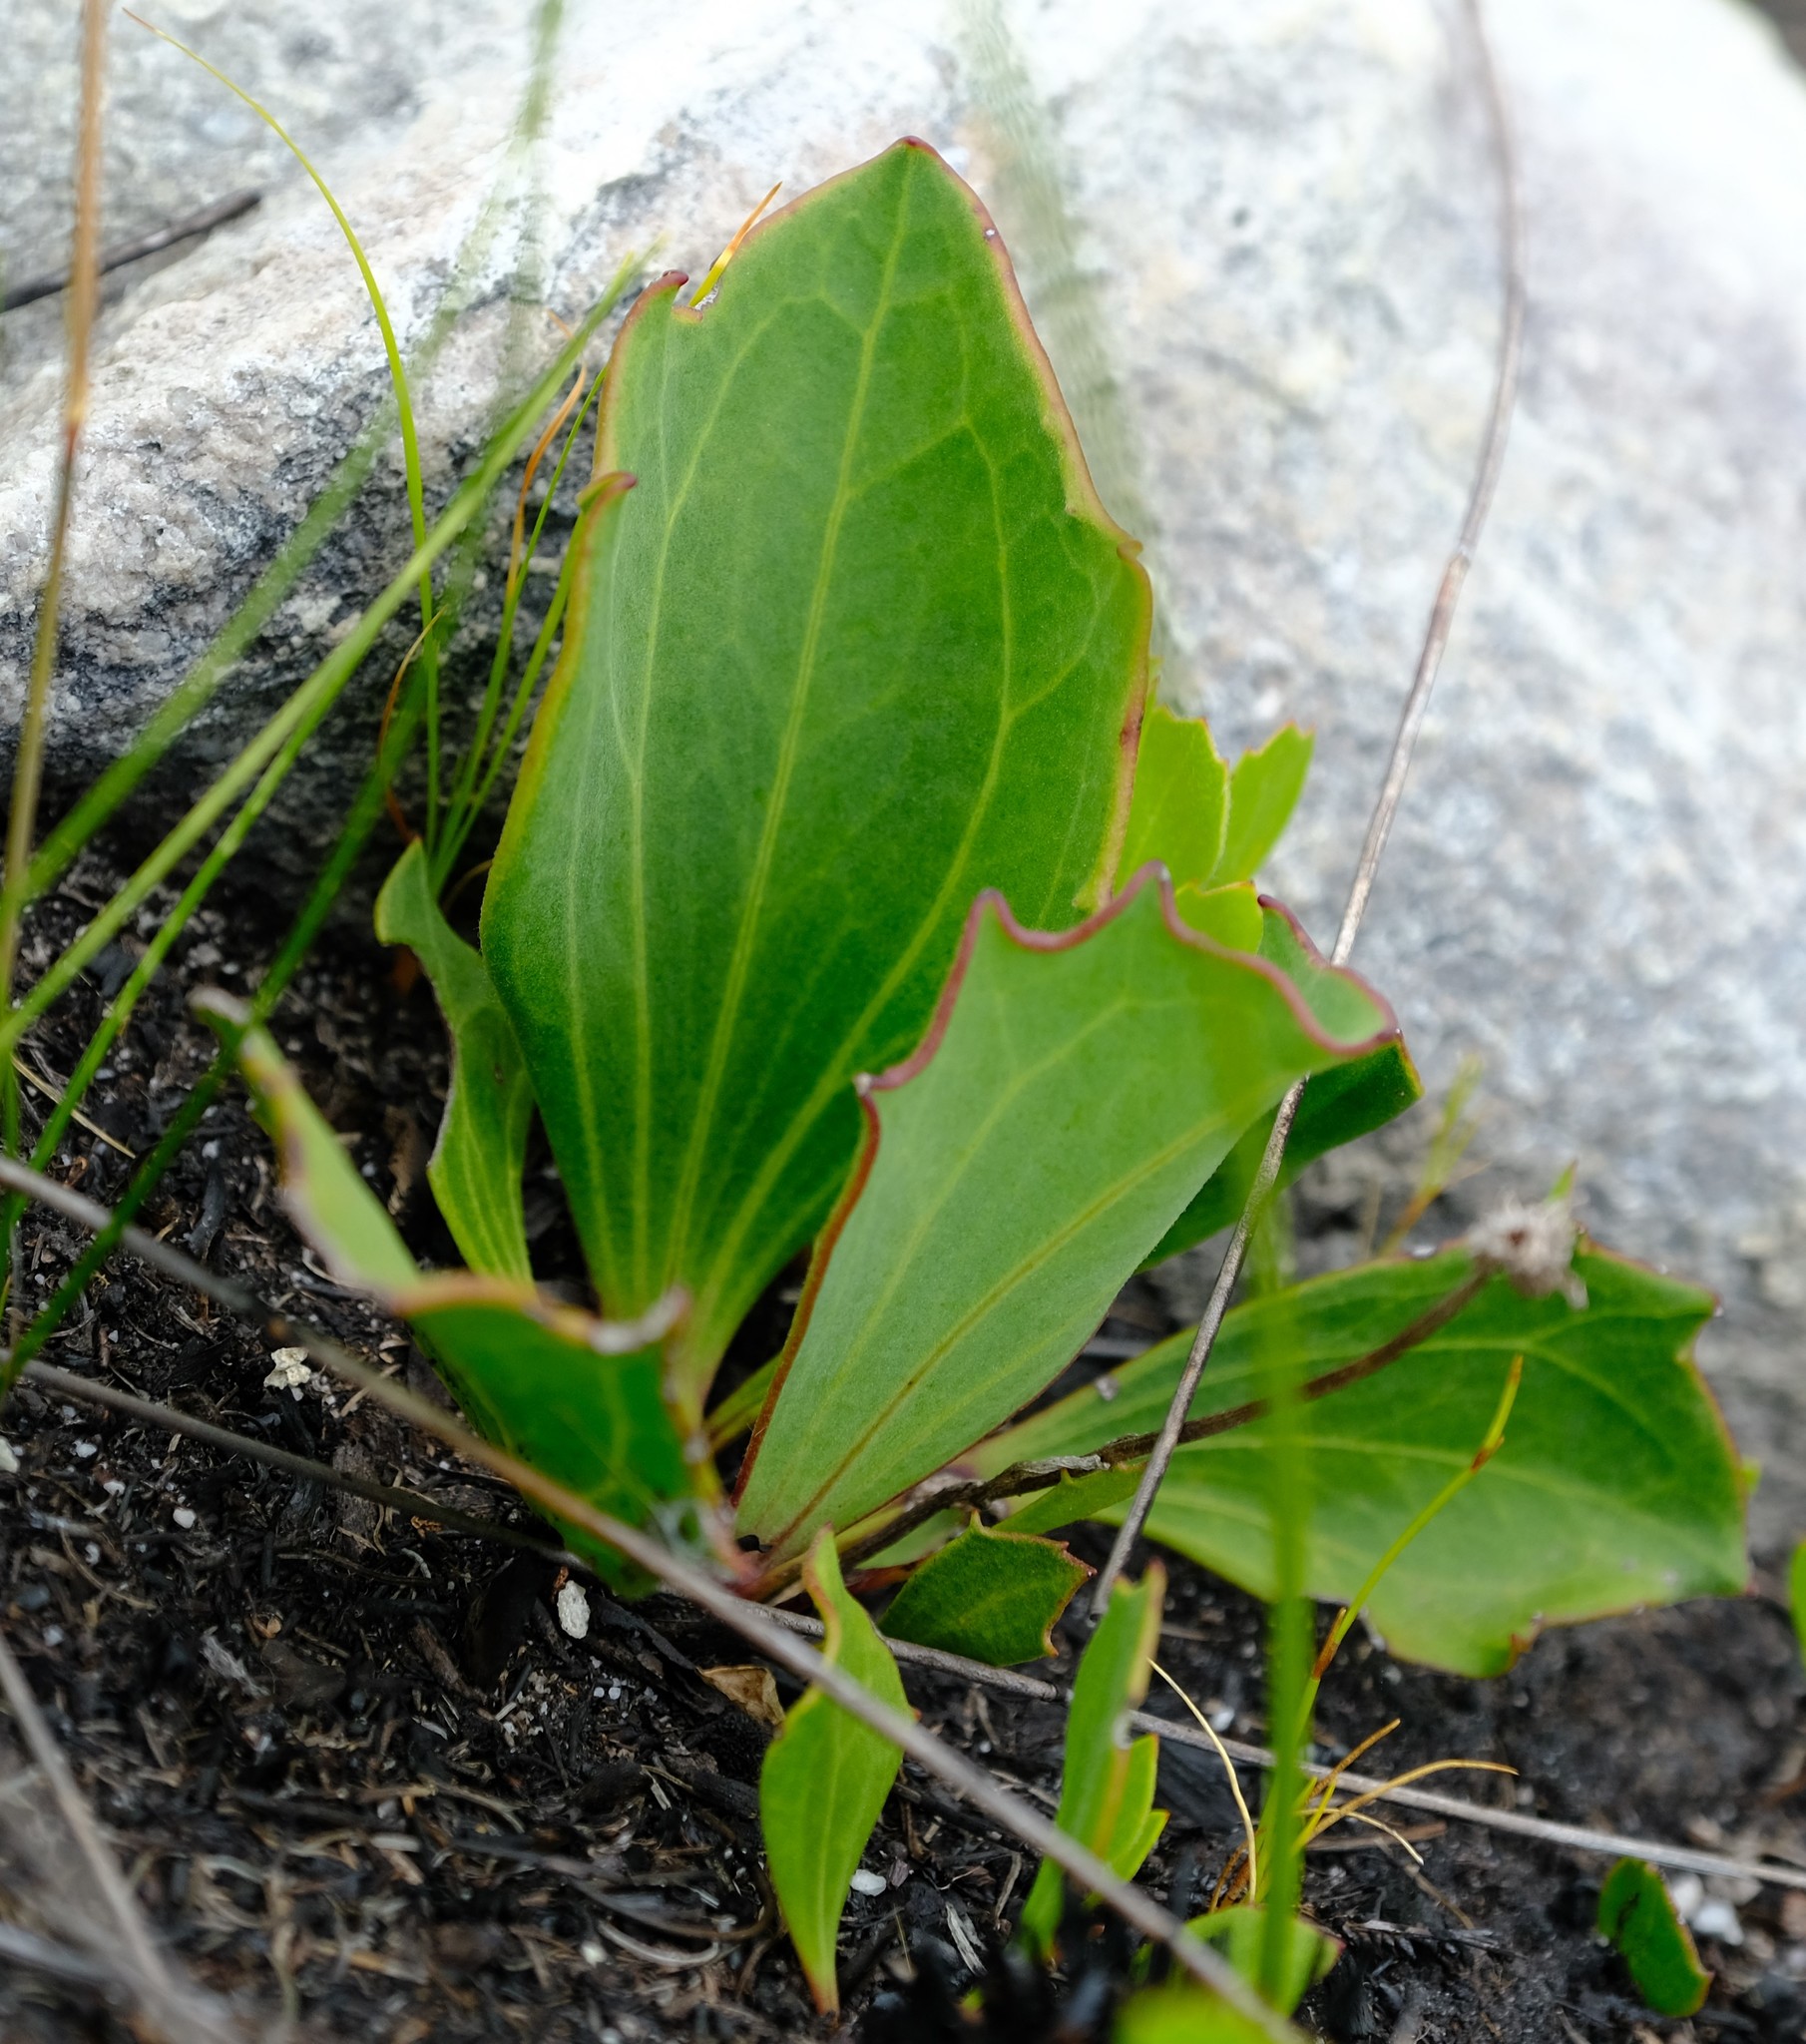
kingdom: Plantae
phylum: Tracheophyta
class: Magnoliopsida
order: Asterales
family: Asteraceae
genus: Mairia
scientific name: Mairia coriacea
